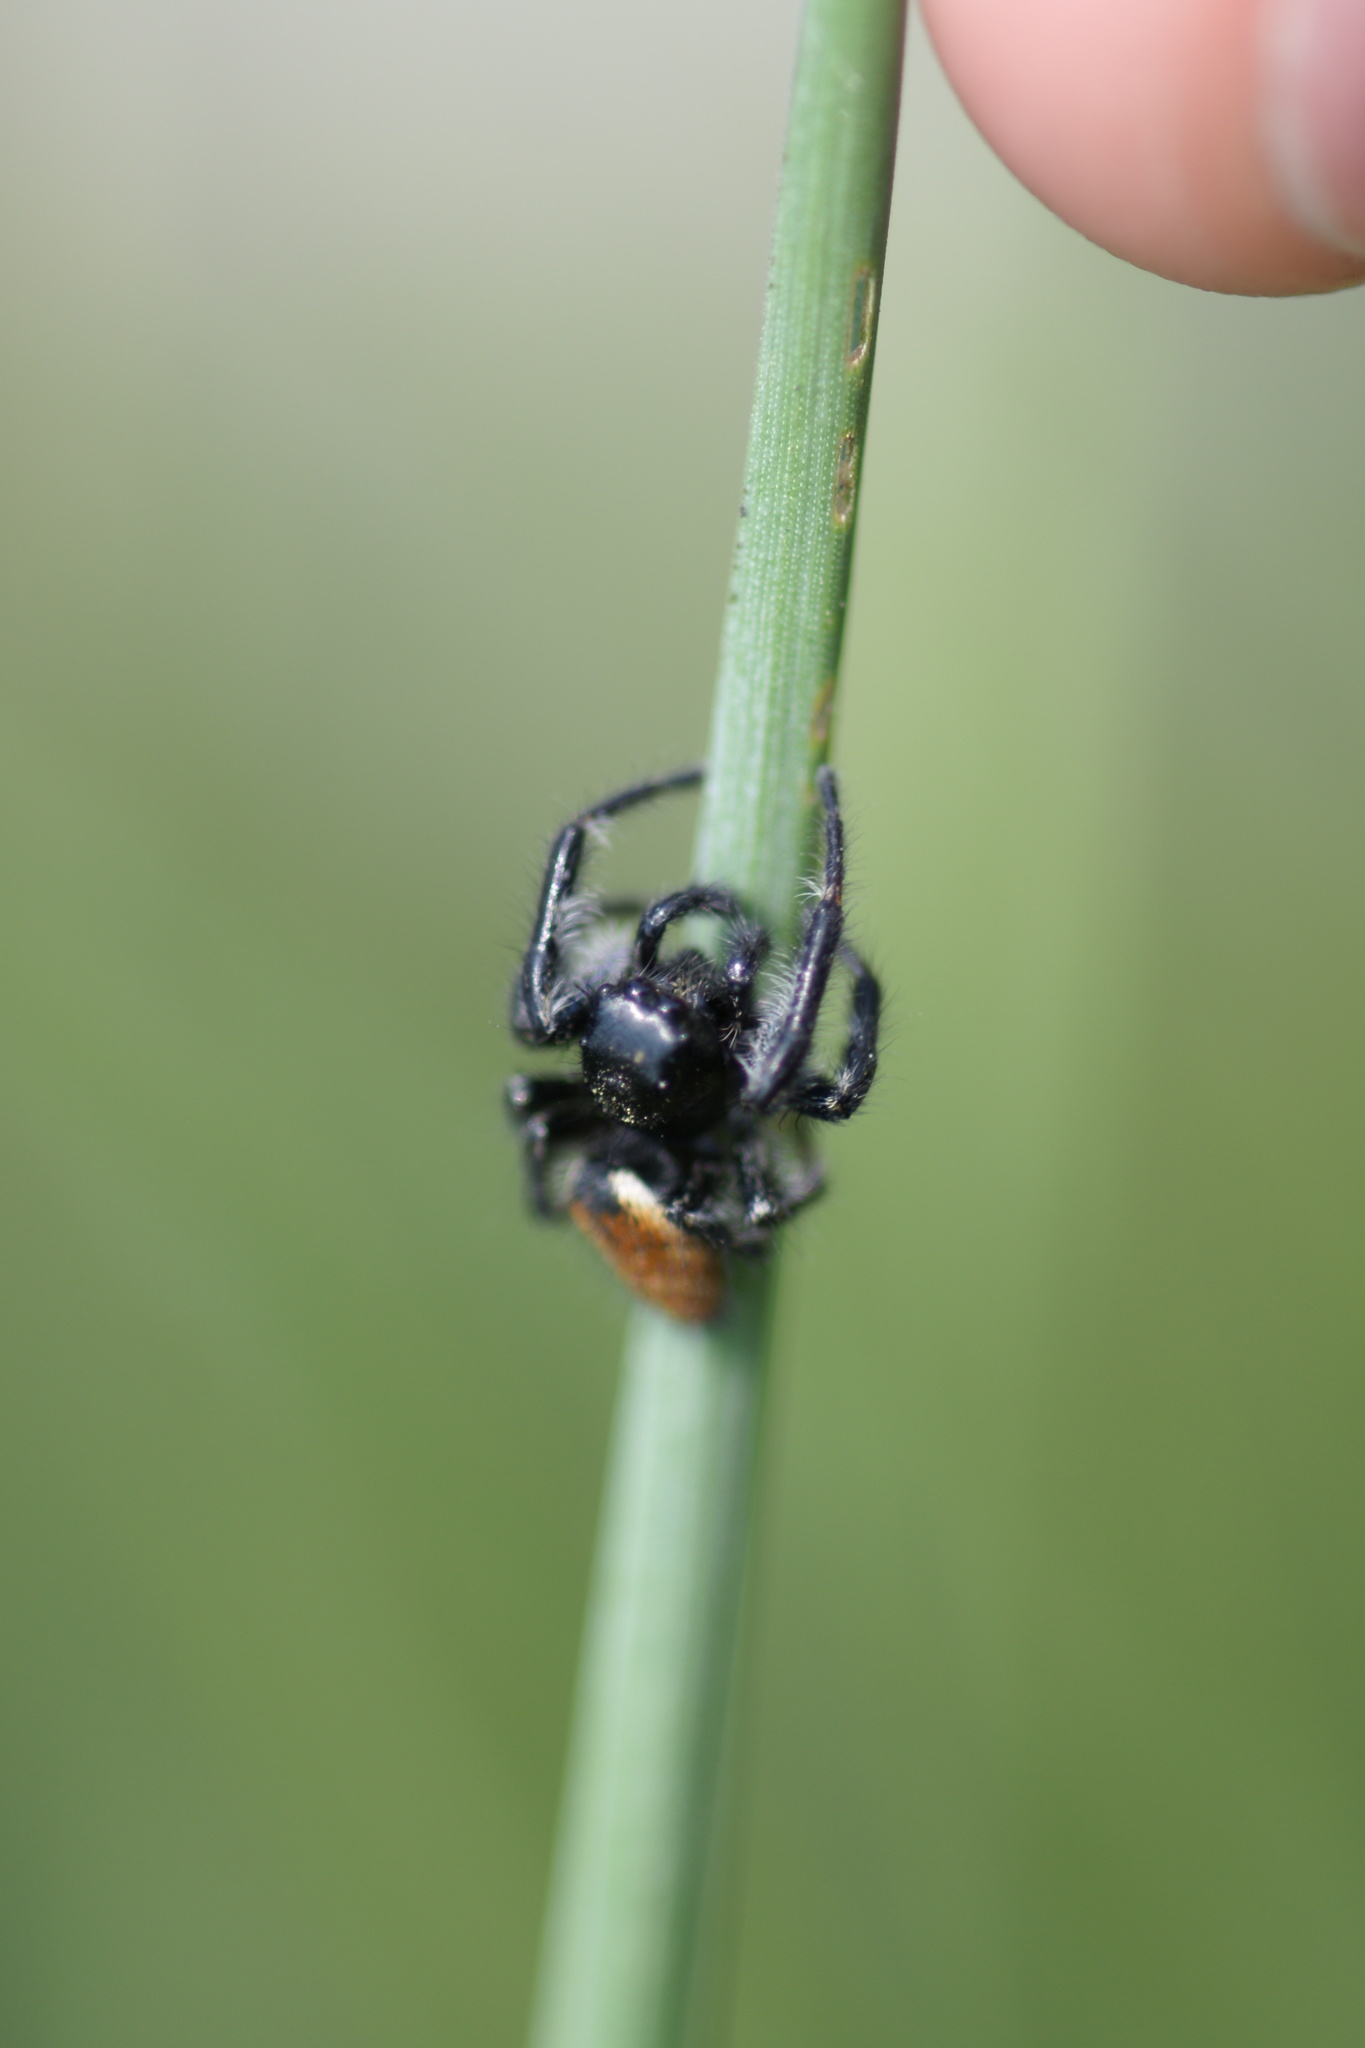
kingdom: Animalia
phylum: Arthropoda
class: Arachnida
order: Araneae
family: Salticidae
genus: Carrhotus
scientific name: Carrhotus xanthogramma
